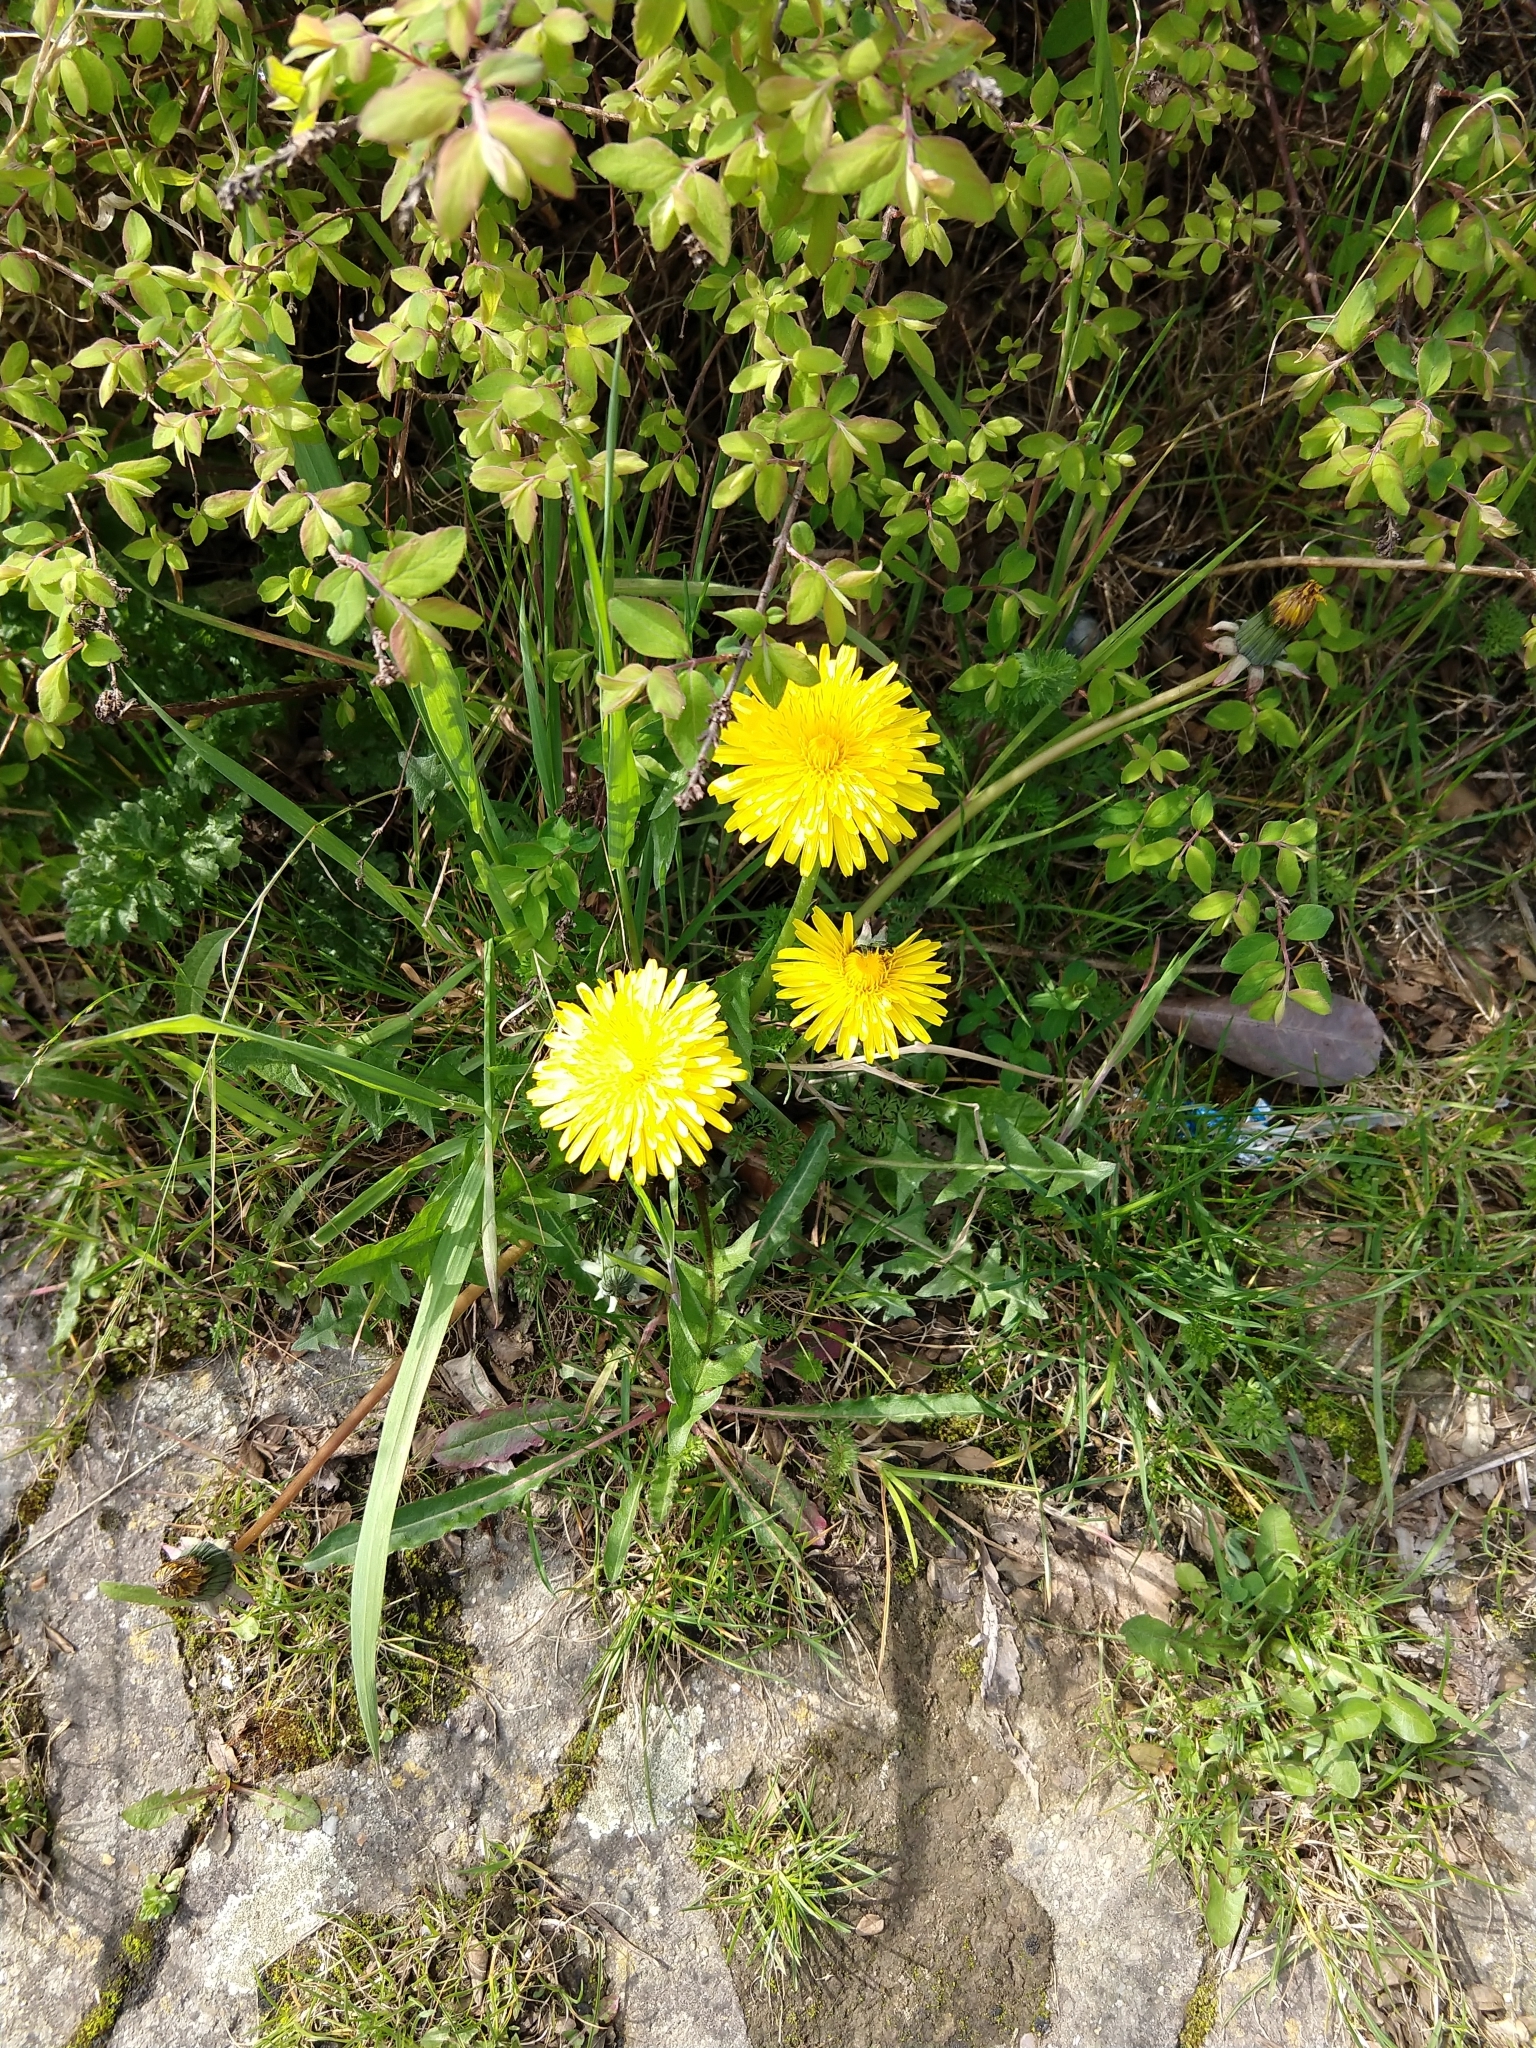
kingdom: Plantae
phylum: Tracheophyta
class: Magnoliopsida
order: Asterales
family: Asteraceae
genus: Taraxacum
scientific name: Taraxacum officinale
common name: Common dandelion
